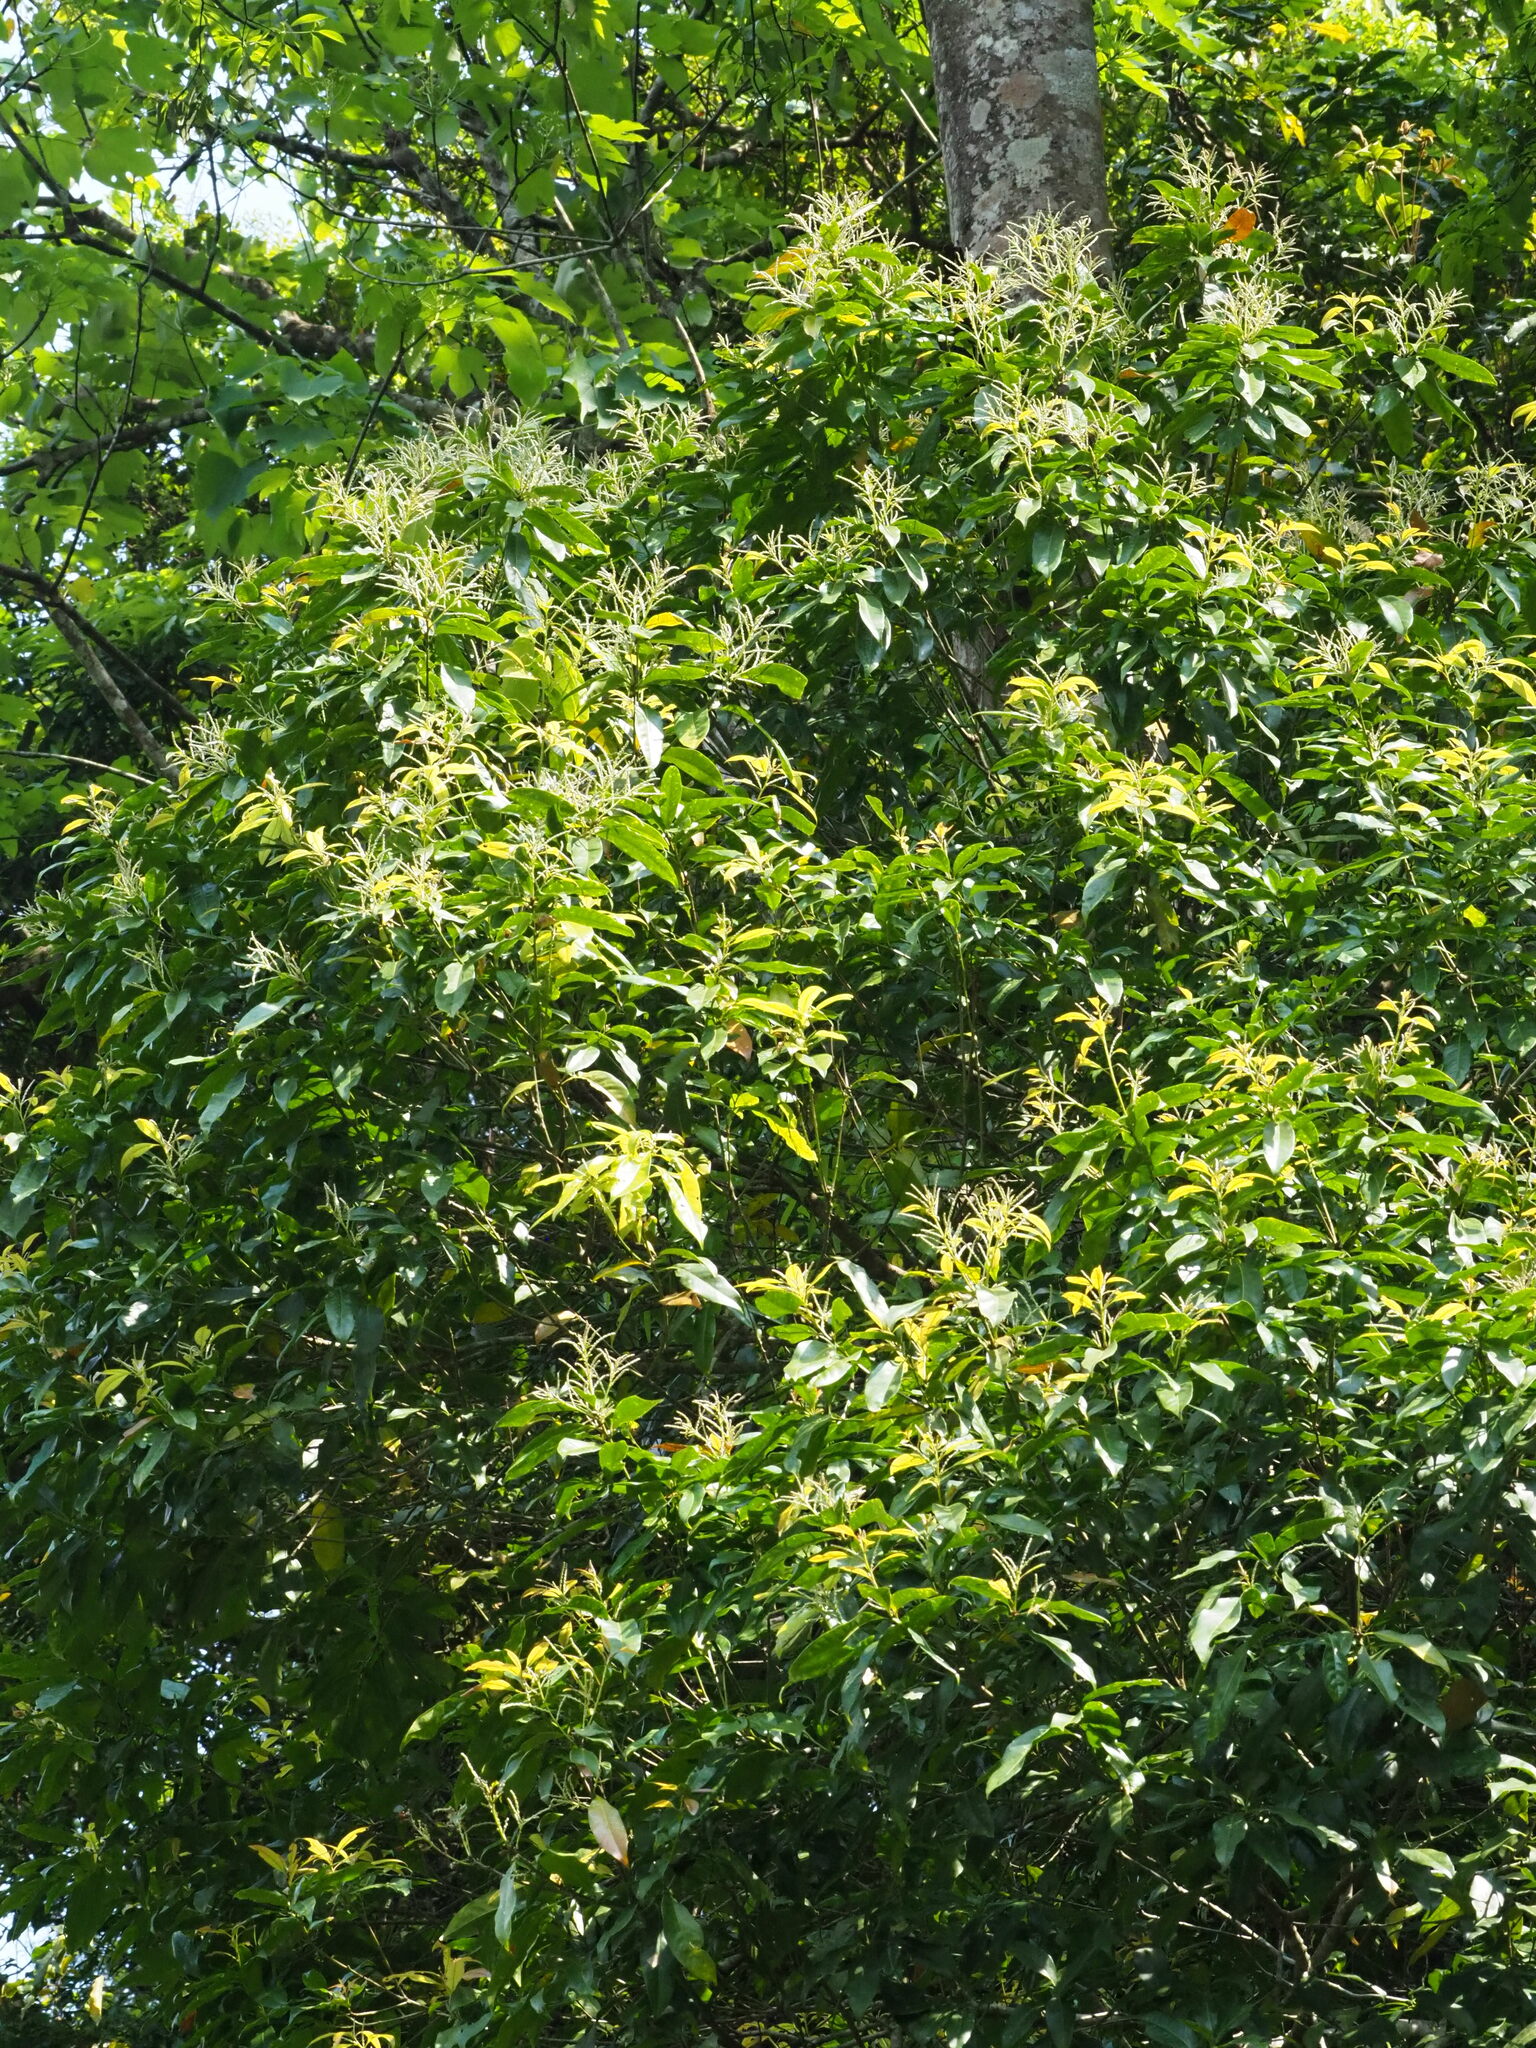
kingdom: Plantae
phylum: Tracheophyta
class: Magnoliopsida
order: Fagales
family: Fagaceae
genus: Lithocarpus
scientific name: Lithocarpus hancei
